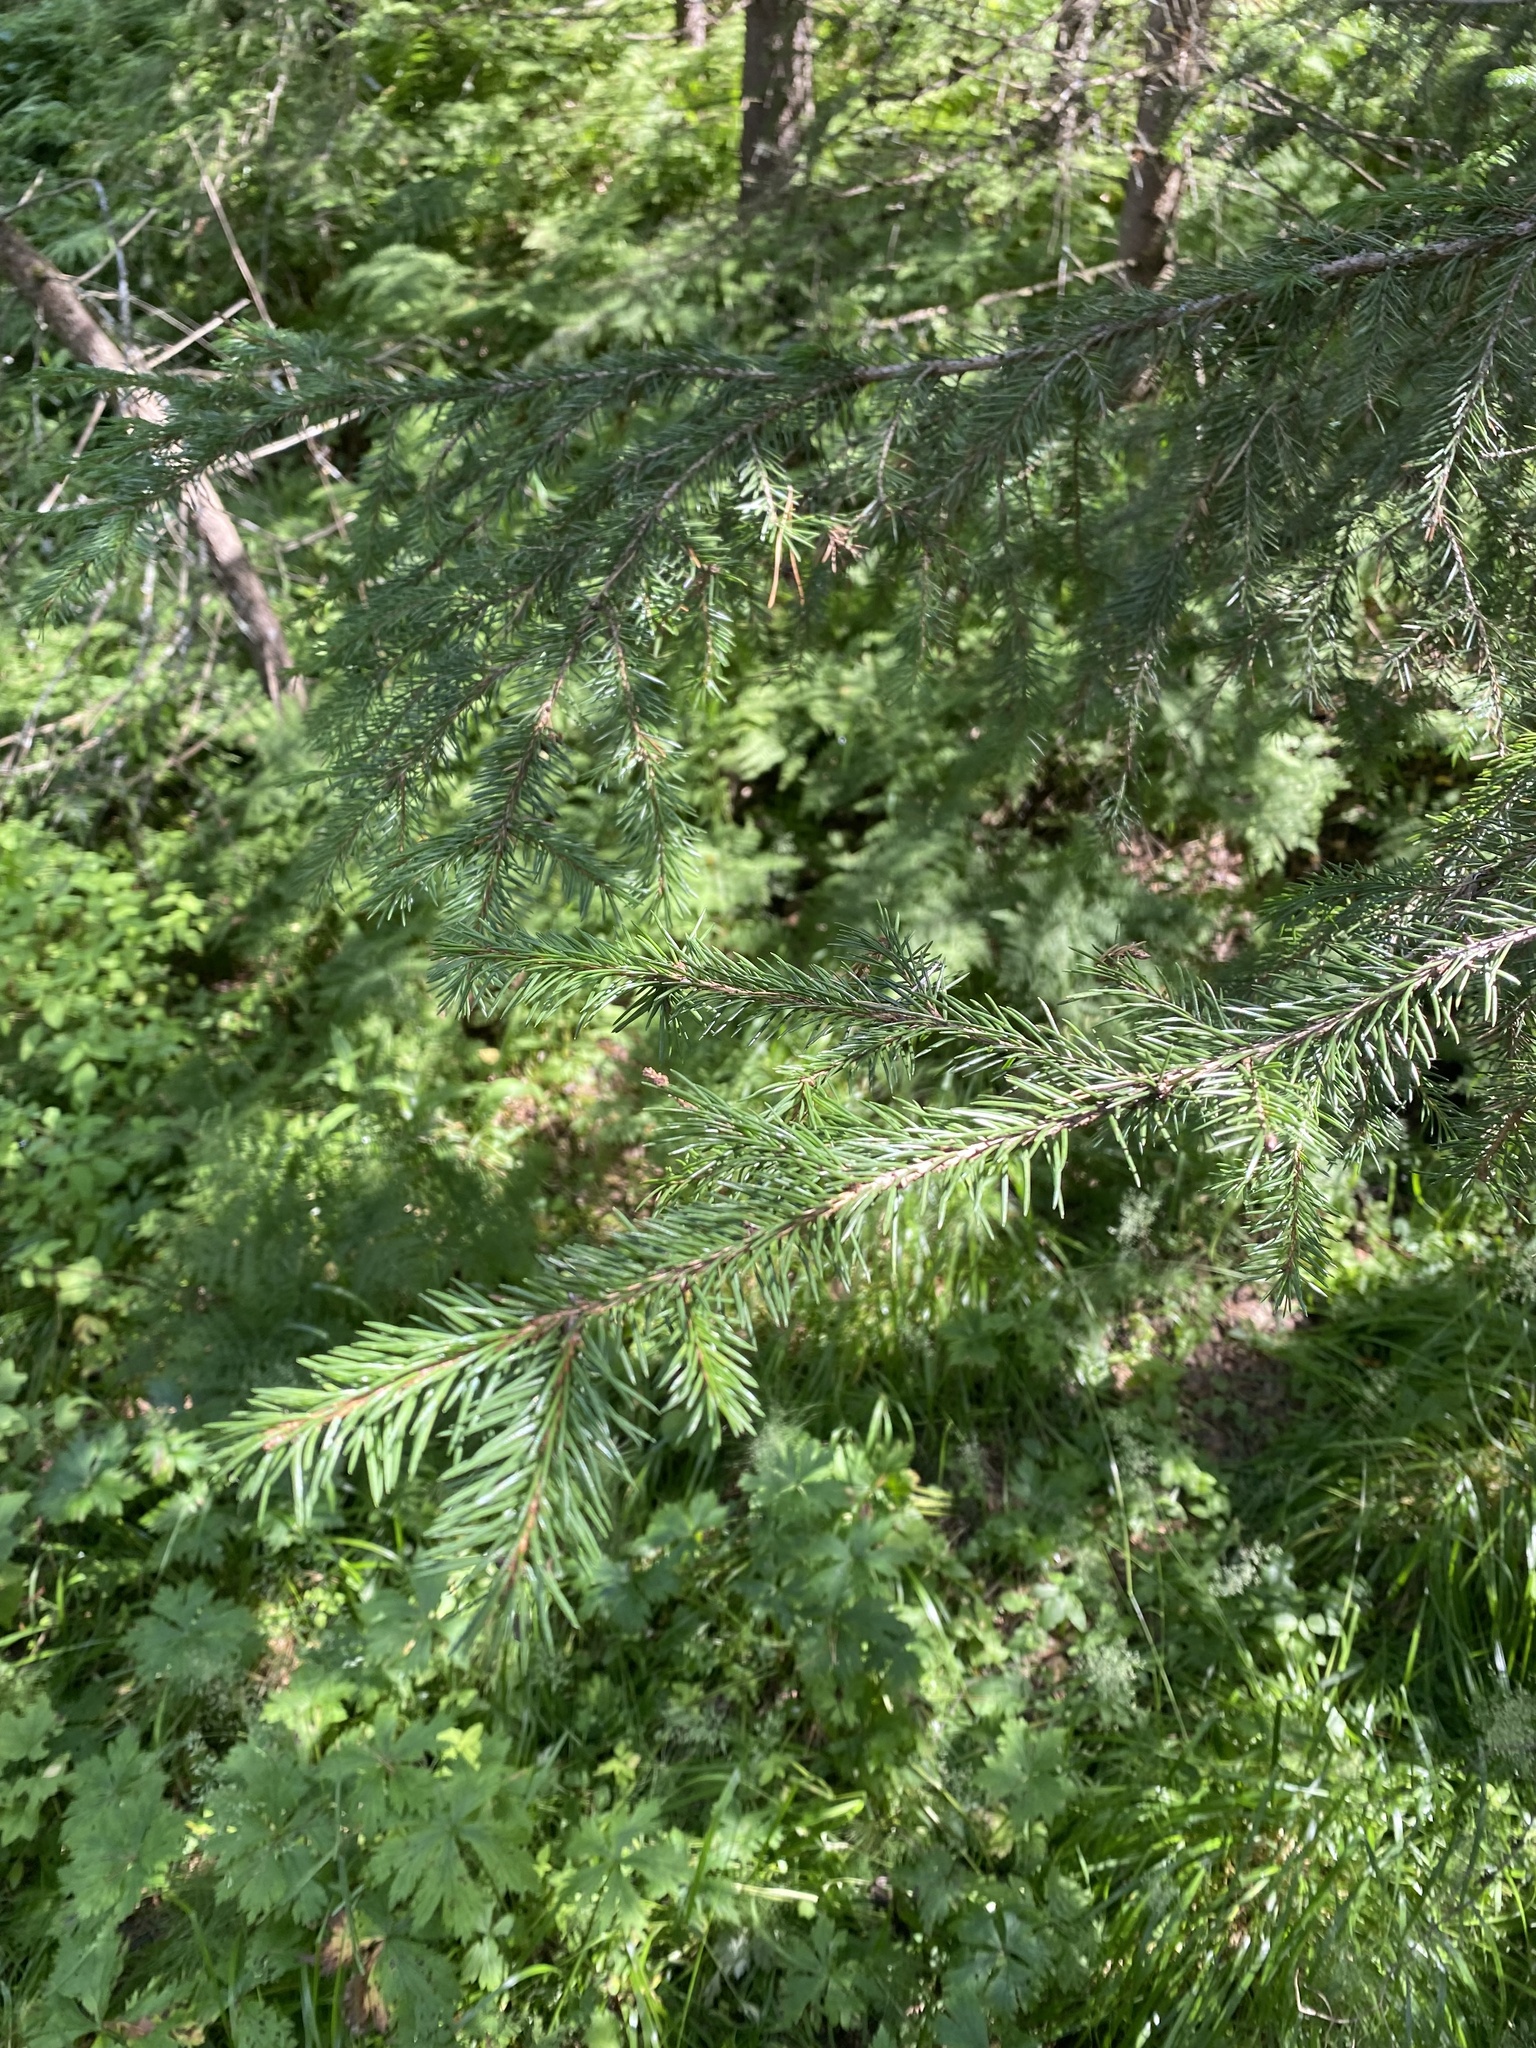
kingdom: Plantae
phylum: Tracheophyta
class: Pinopsida
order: Pinales
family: Pinaceae
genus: Picea
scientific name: Picea obovata
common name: Siberian spruce
